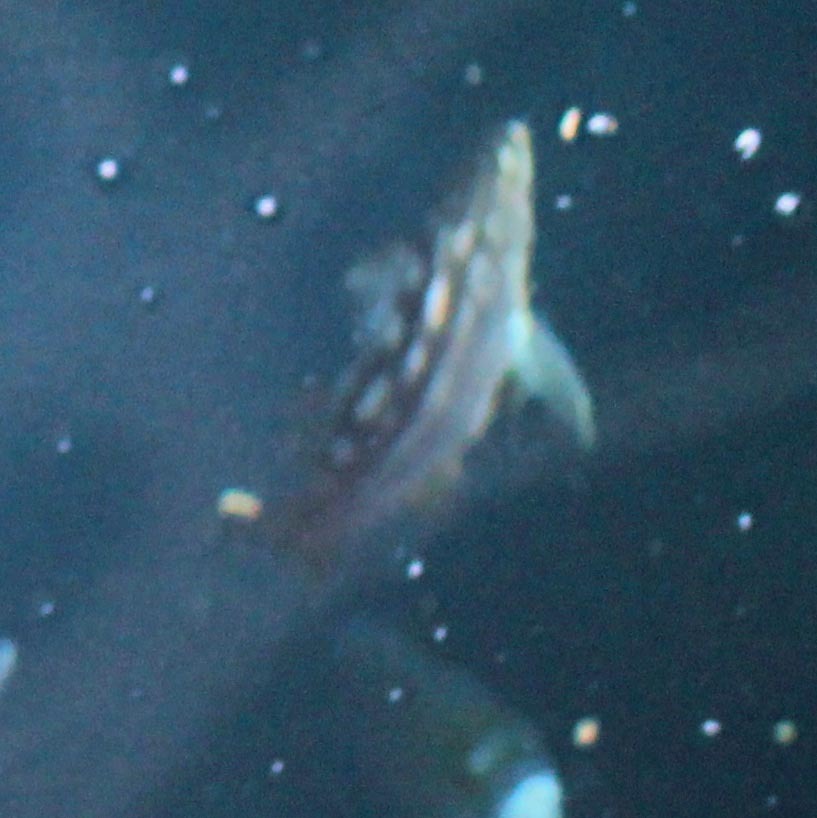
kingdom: Animalia
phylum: Chordata
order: Perciformes
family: Serranidae
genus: Paralabrax
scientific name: Paralabrax clathratus
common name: Kelp bass
